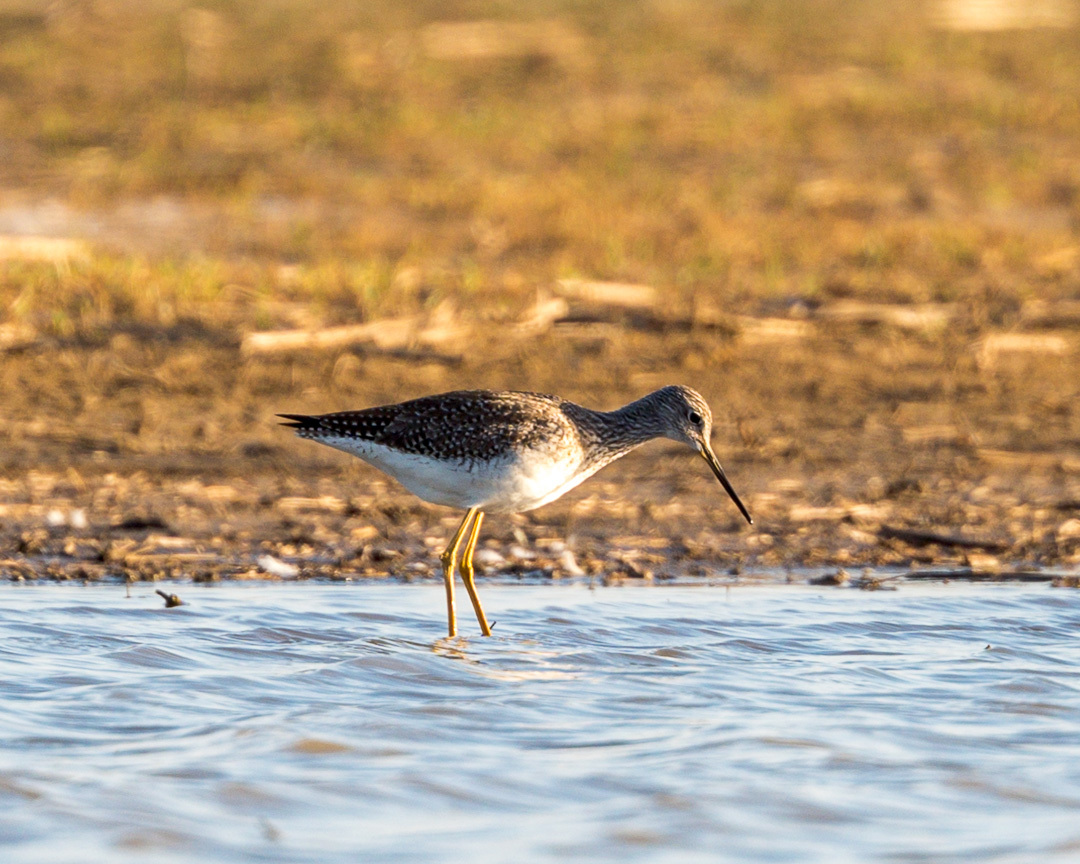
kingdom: Animalia
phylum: Chordata
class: Aves
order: Charadriiformes
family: Scolopacidae
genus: Tringa
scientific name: Tringa melanoleuca
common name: Greater yellowlegs
